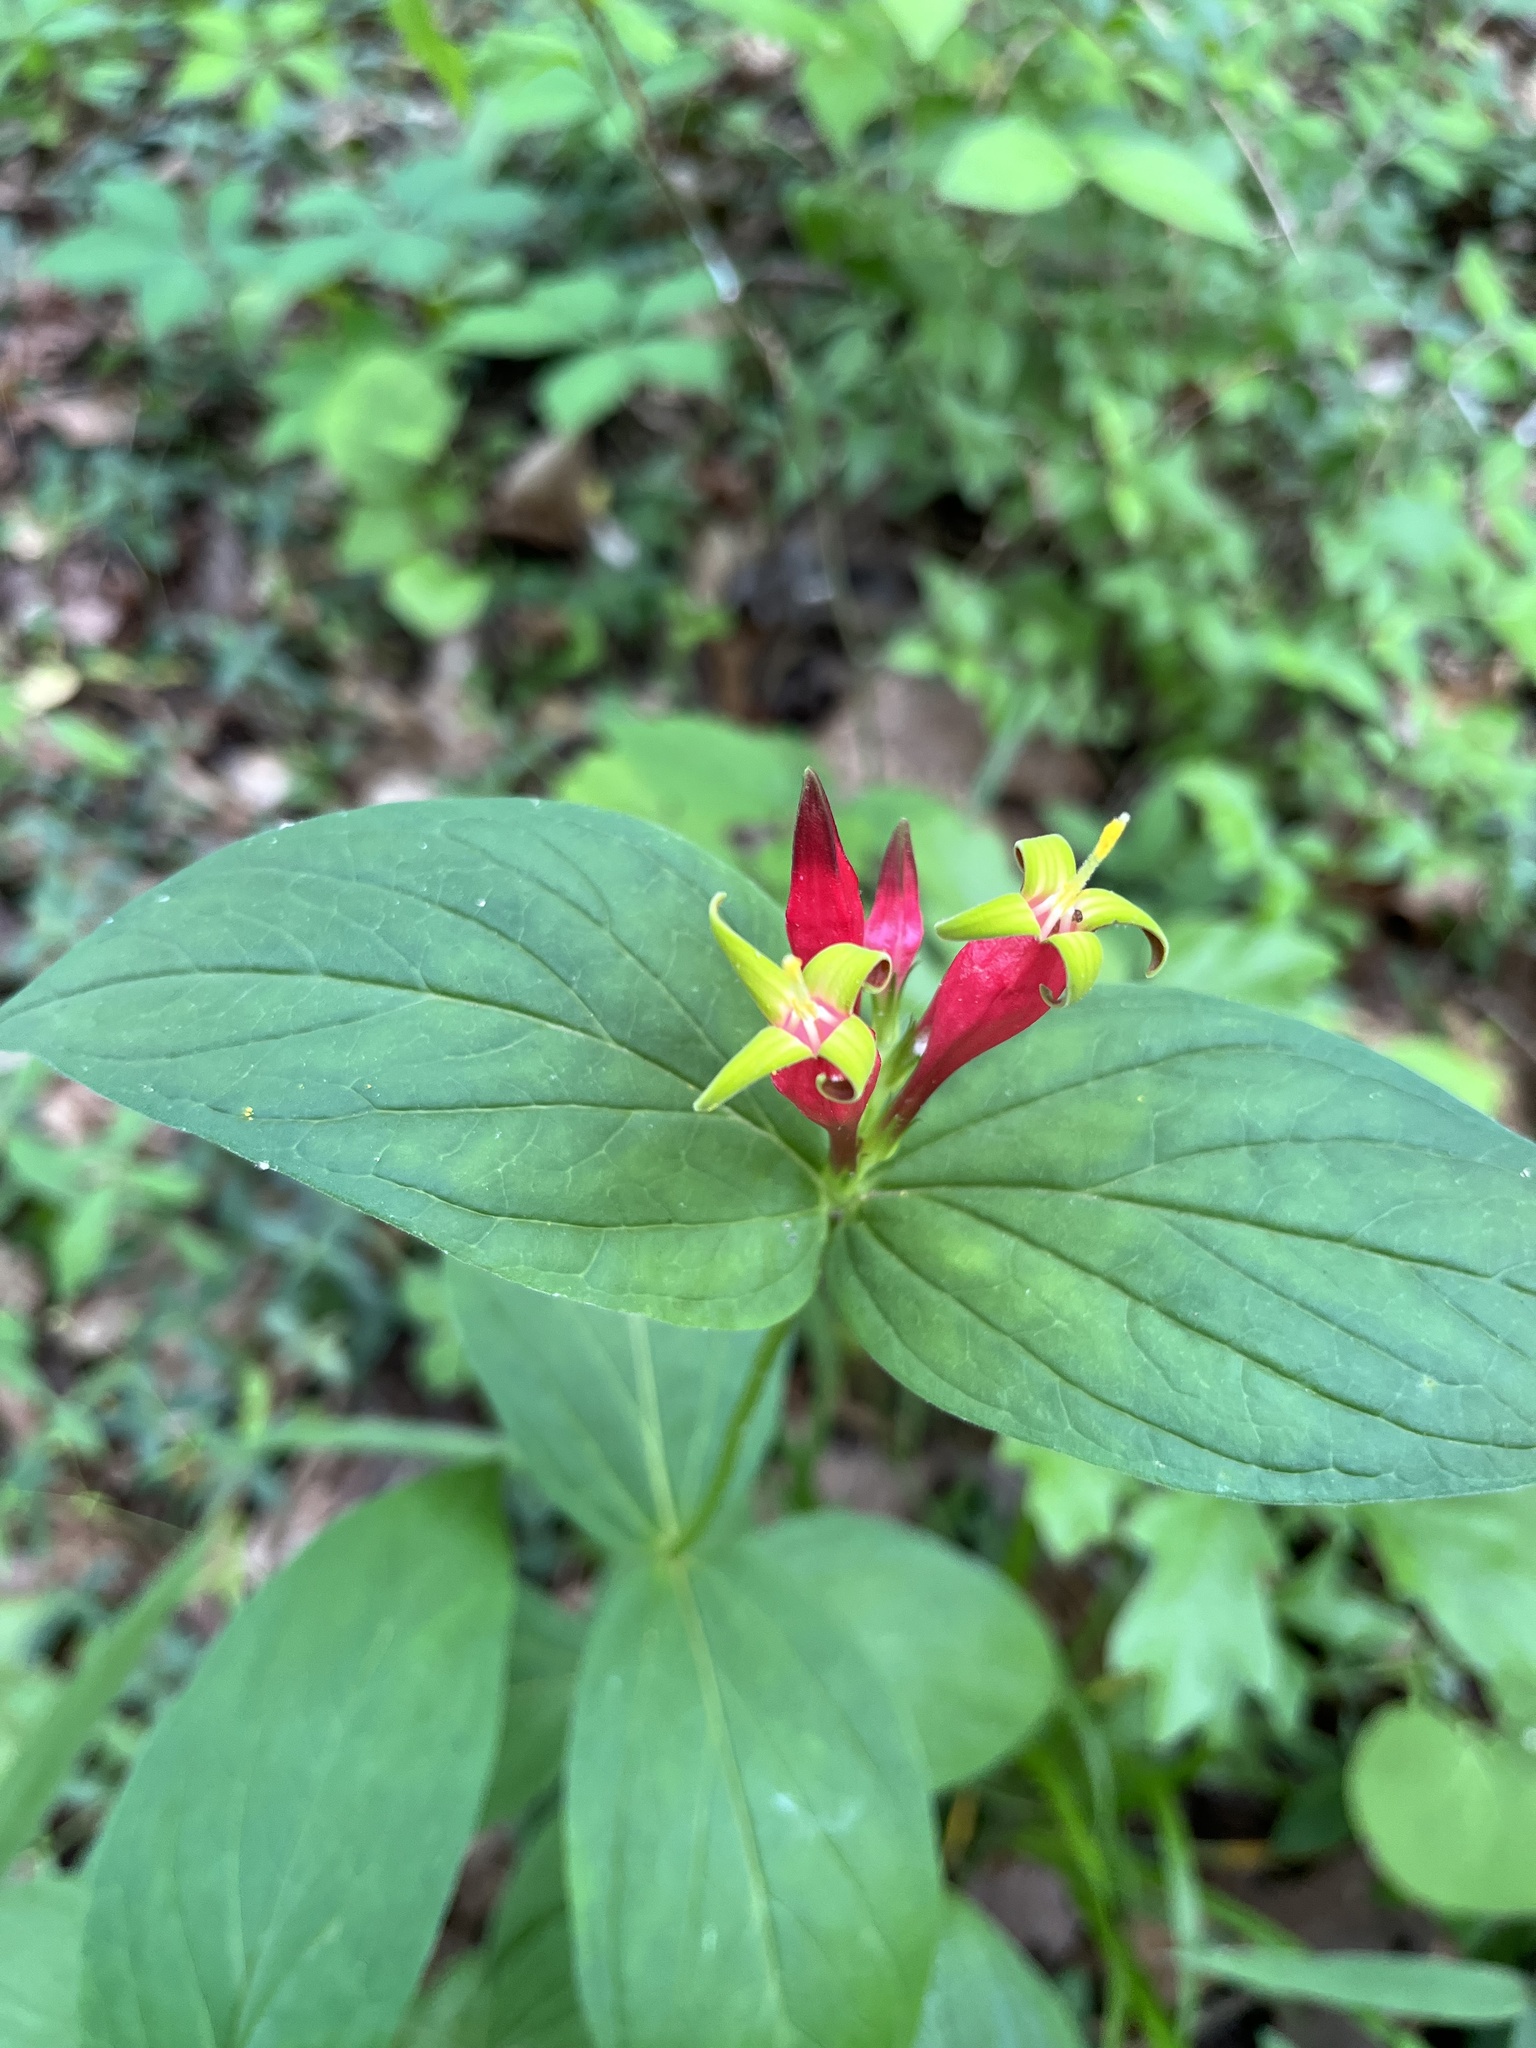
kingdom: Plantae
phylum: Tracheophyta
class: Magnoliopsida
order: Gentianales
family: Loganiaceae
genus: Spigelia
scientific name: Spigelia marilandica
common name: Indian-pink
